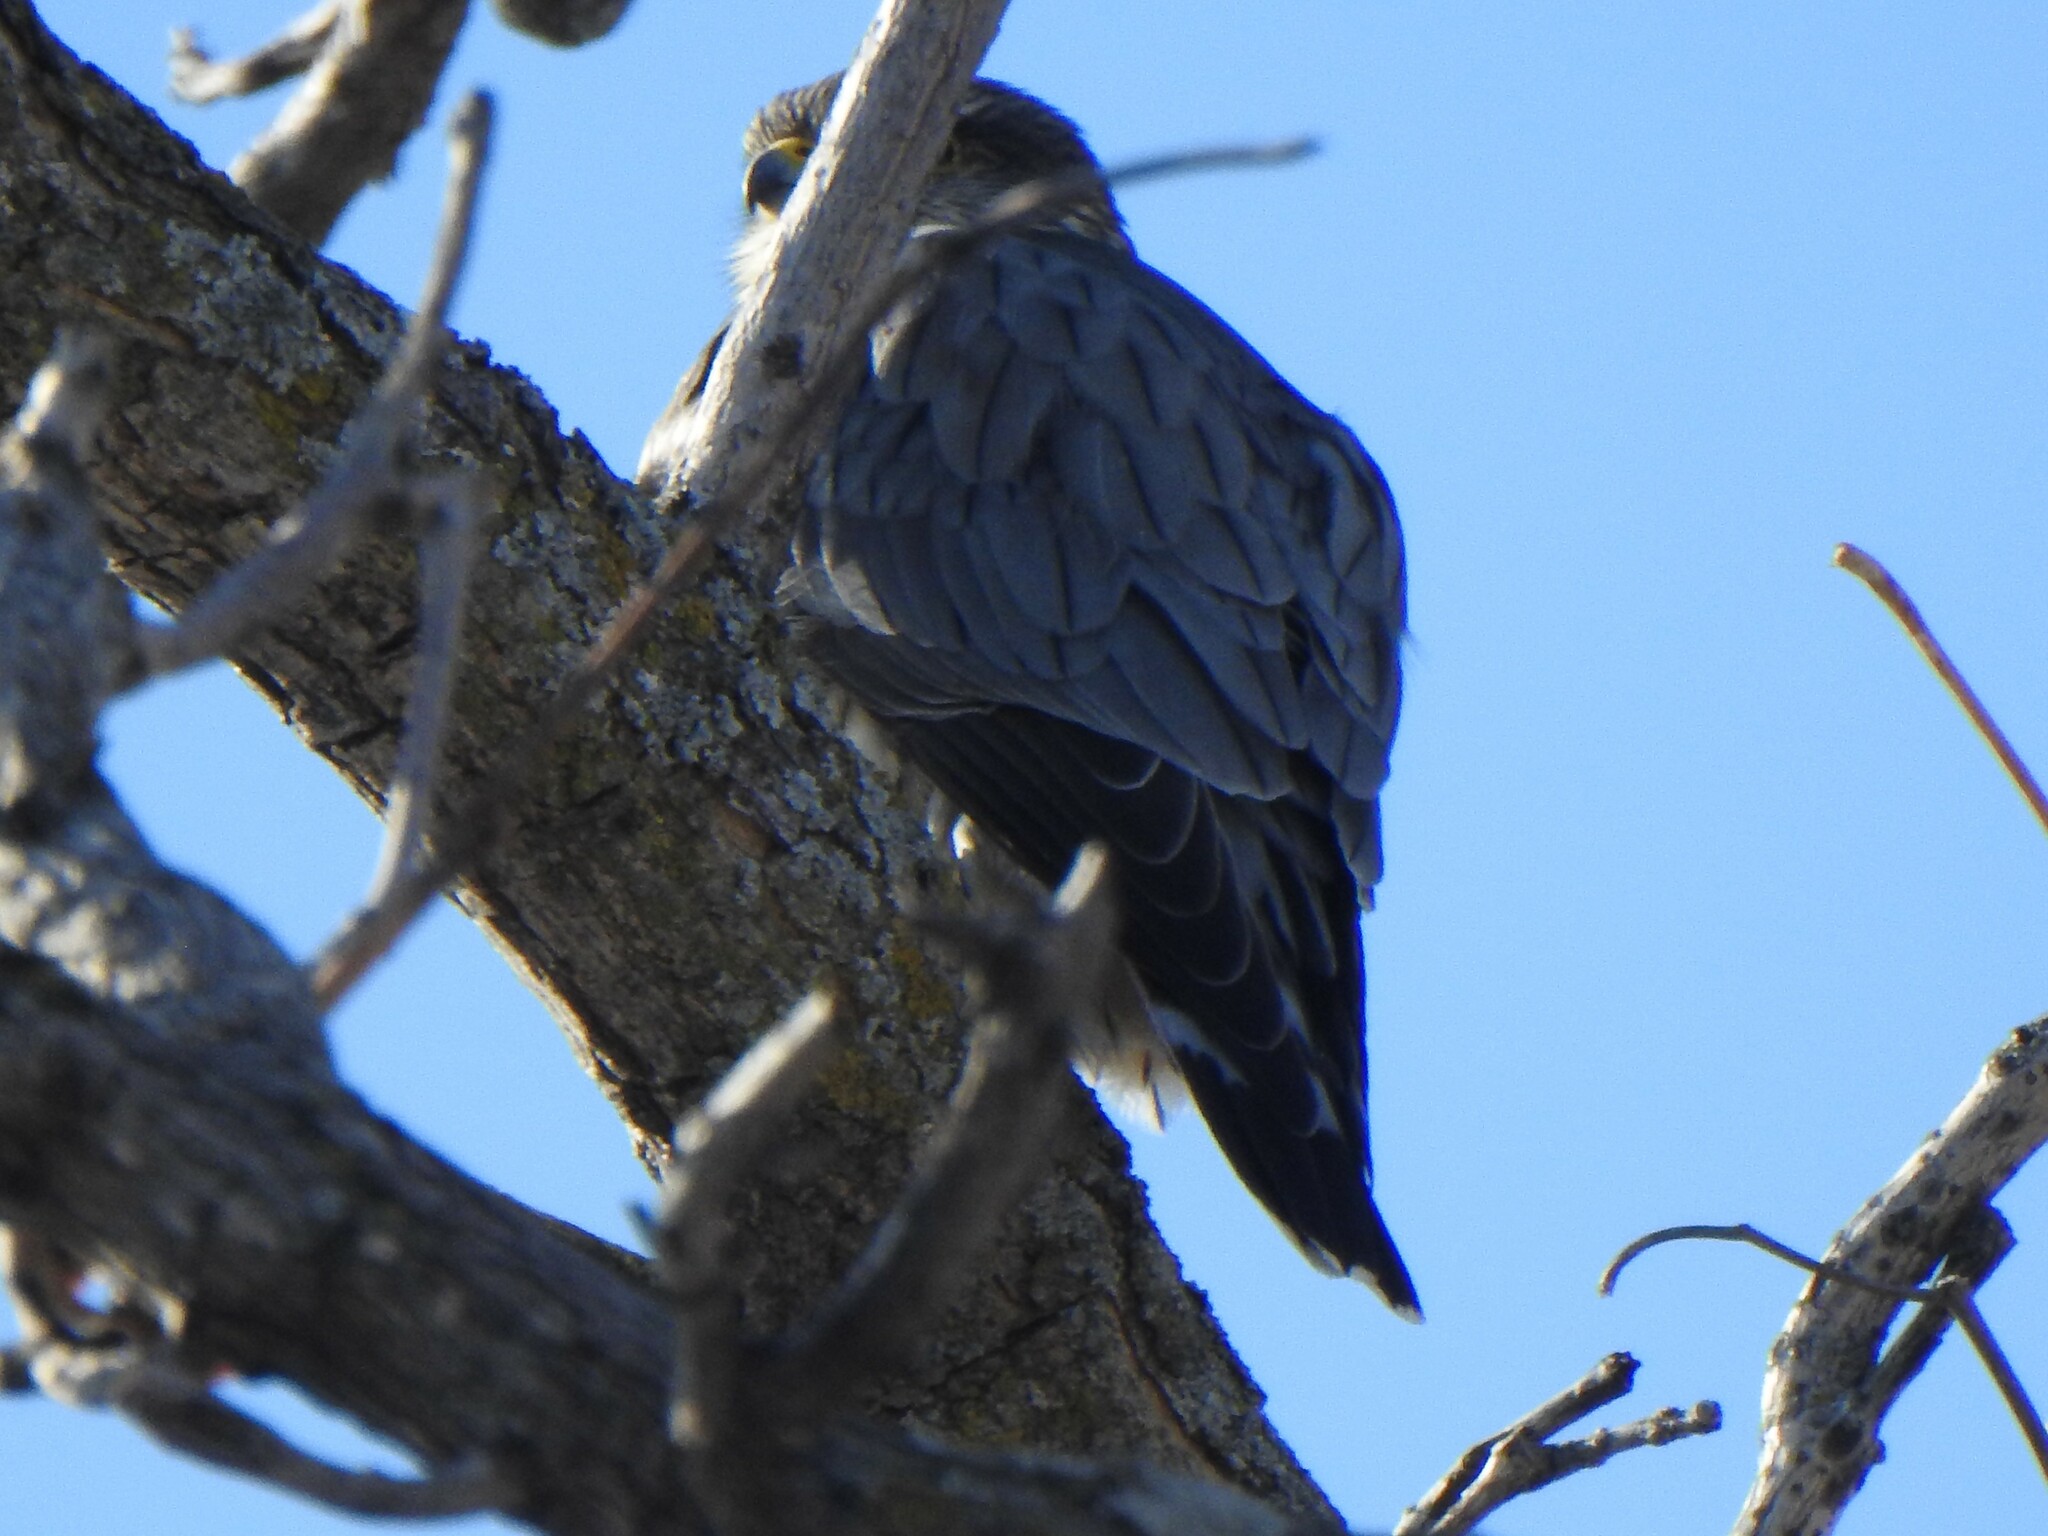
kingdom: Animalia
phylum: Chordata
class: Aves
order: Falconiformes
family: Falconidae
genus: Falco
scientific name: Falco columbarius
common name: Merlin
